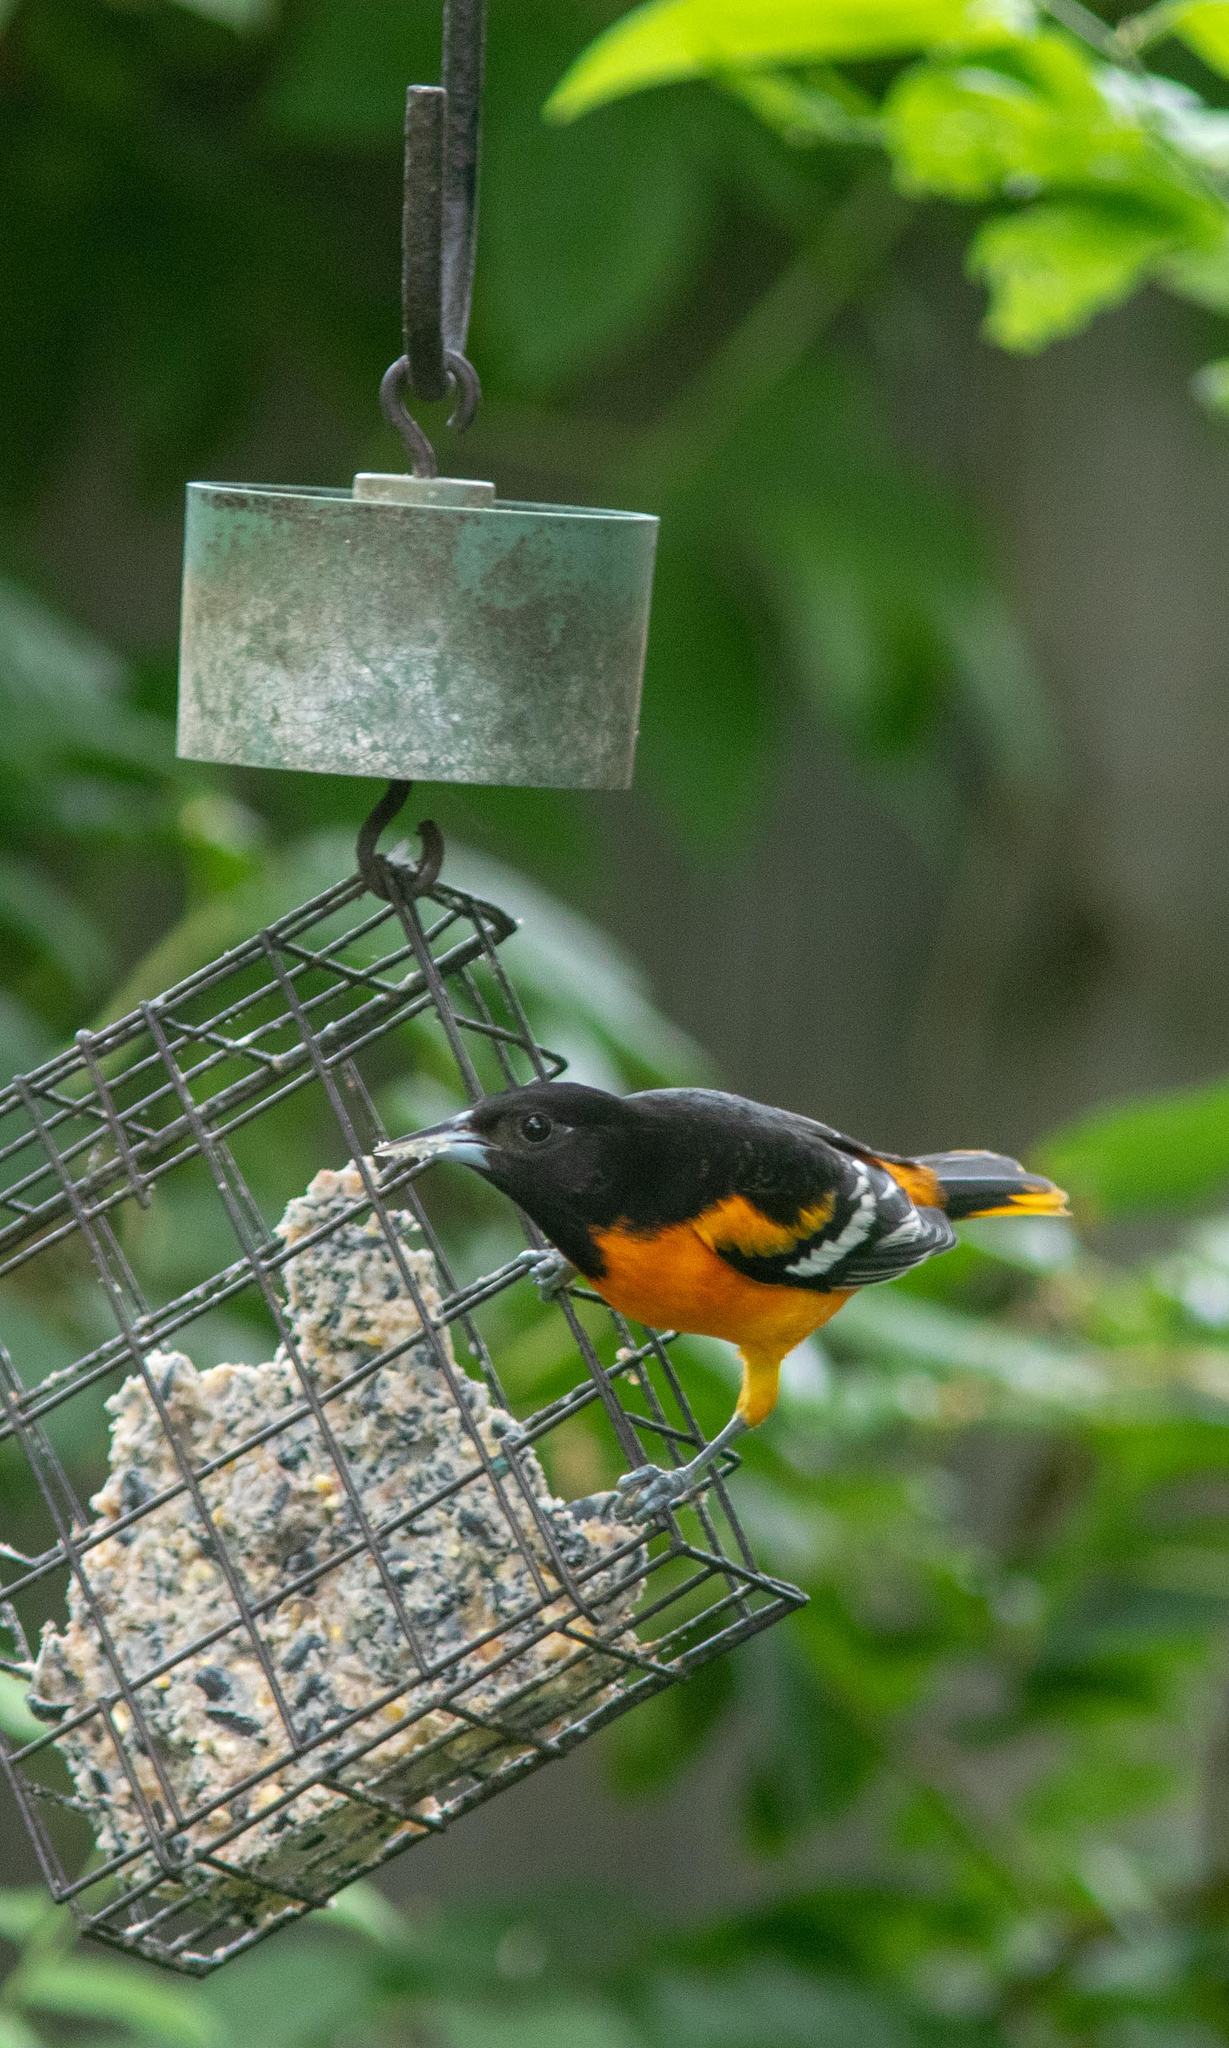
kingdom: Animalia
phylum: Chordata
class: Aves
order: Passeriformes
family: Icteridae
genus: Icterus
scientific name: Icterus galbula
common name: Baltimore oriole
